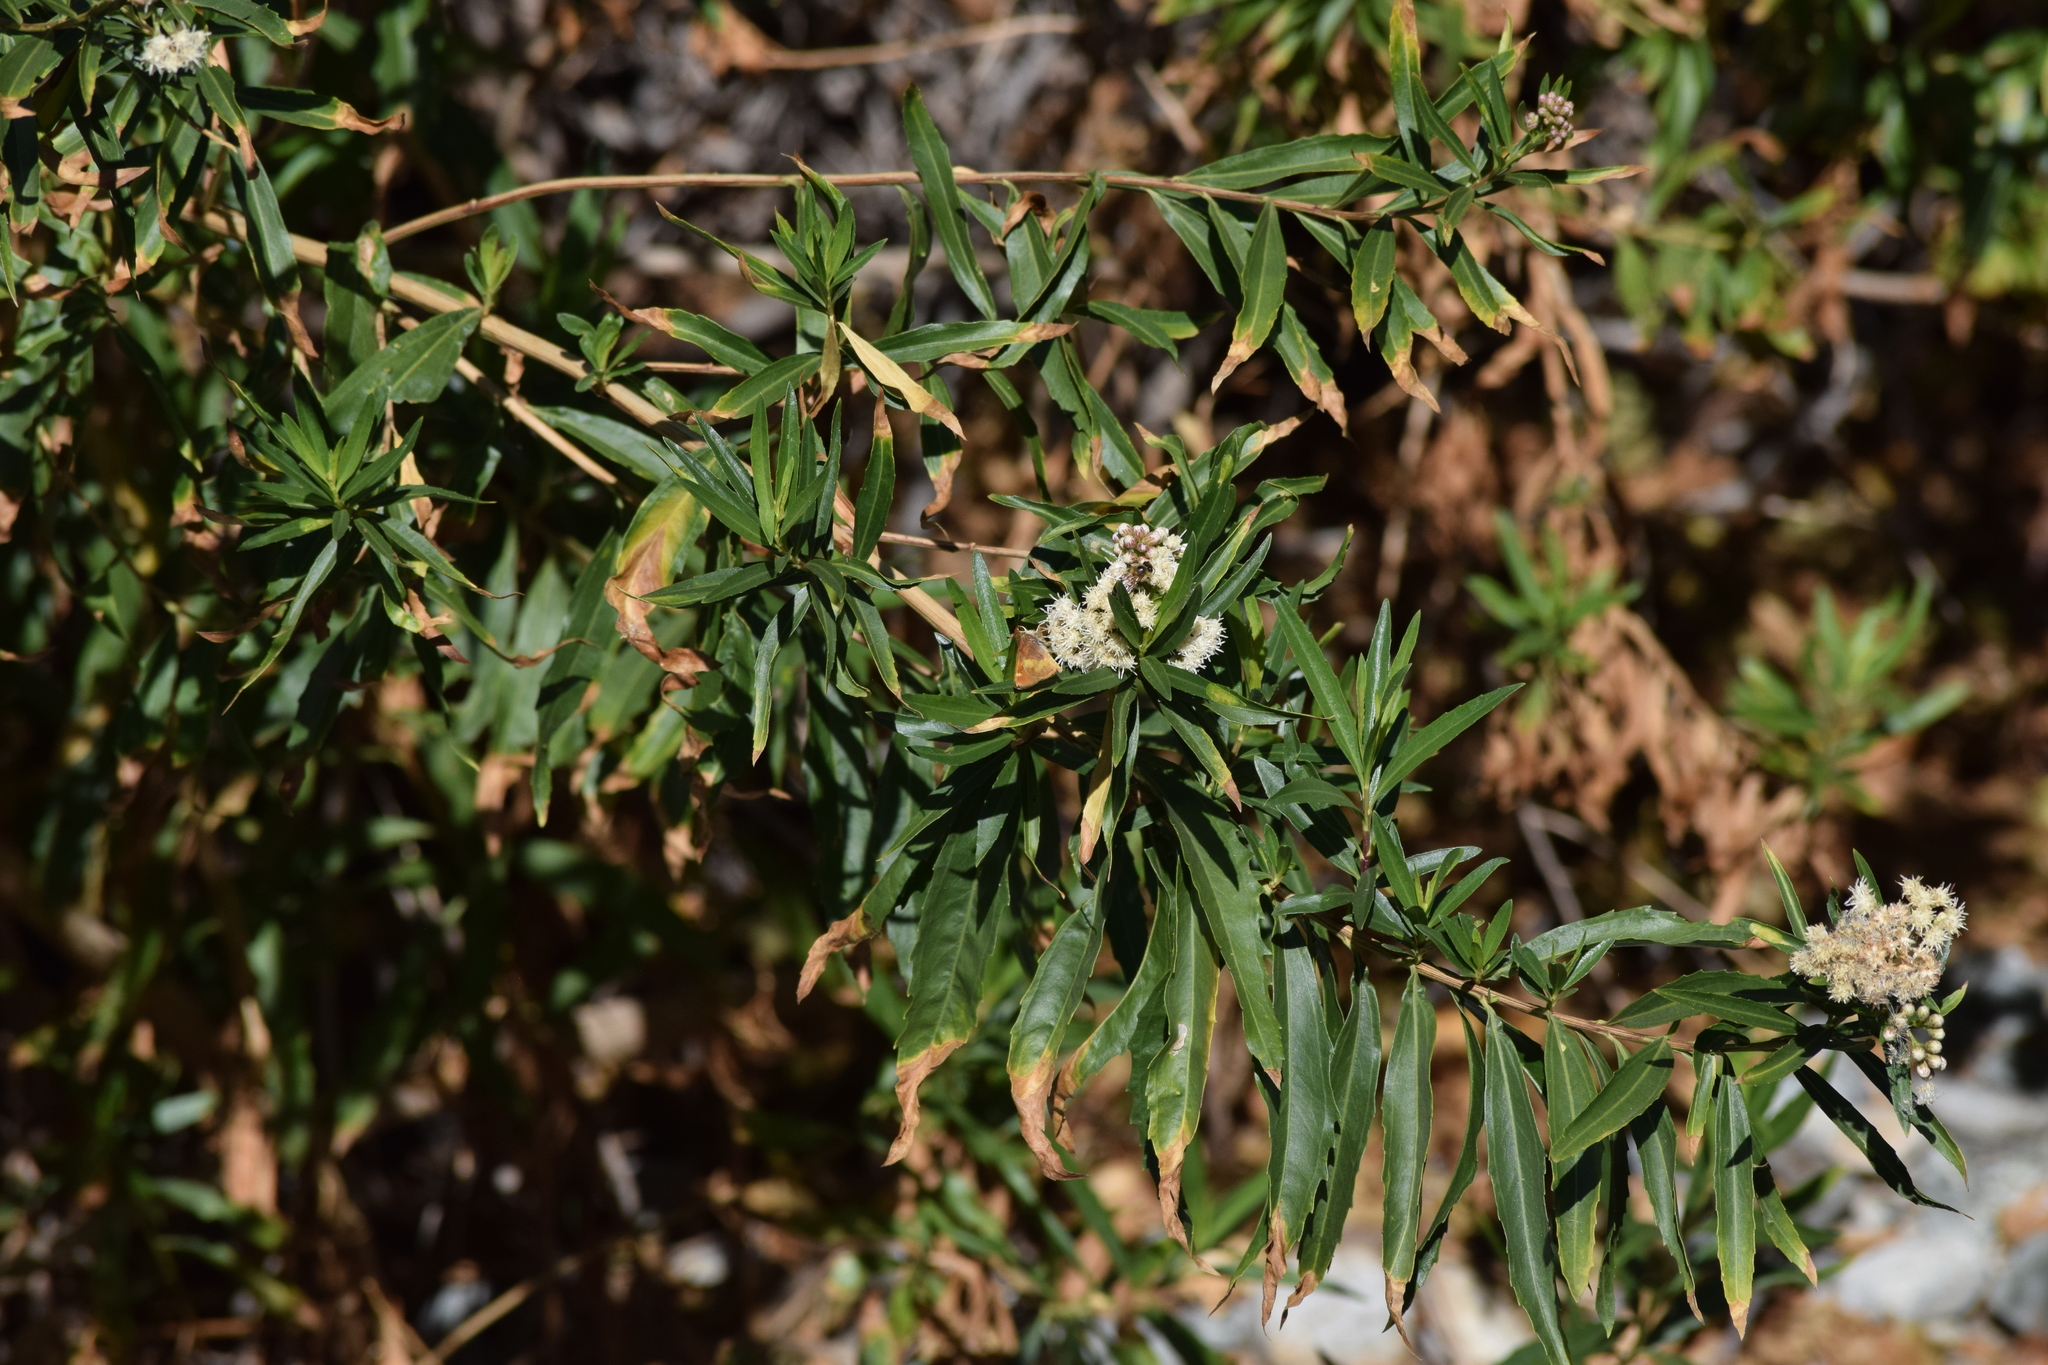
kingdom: Animalia
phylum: Arthropoda
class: Insecta
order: Lepidoptera
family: Hesperiidae
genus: Lon
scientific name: Lon melane
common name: Umber skipper
